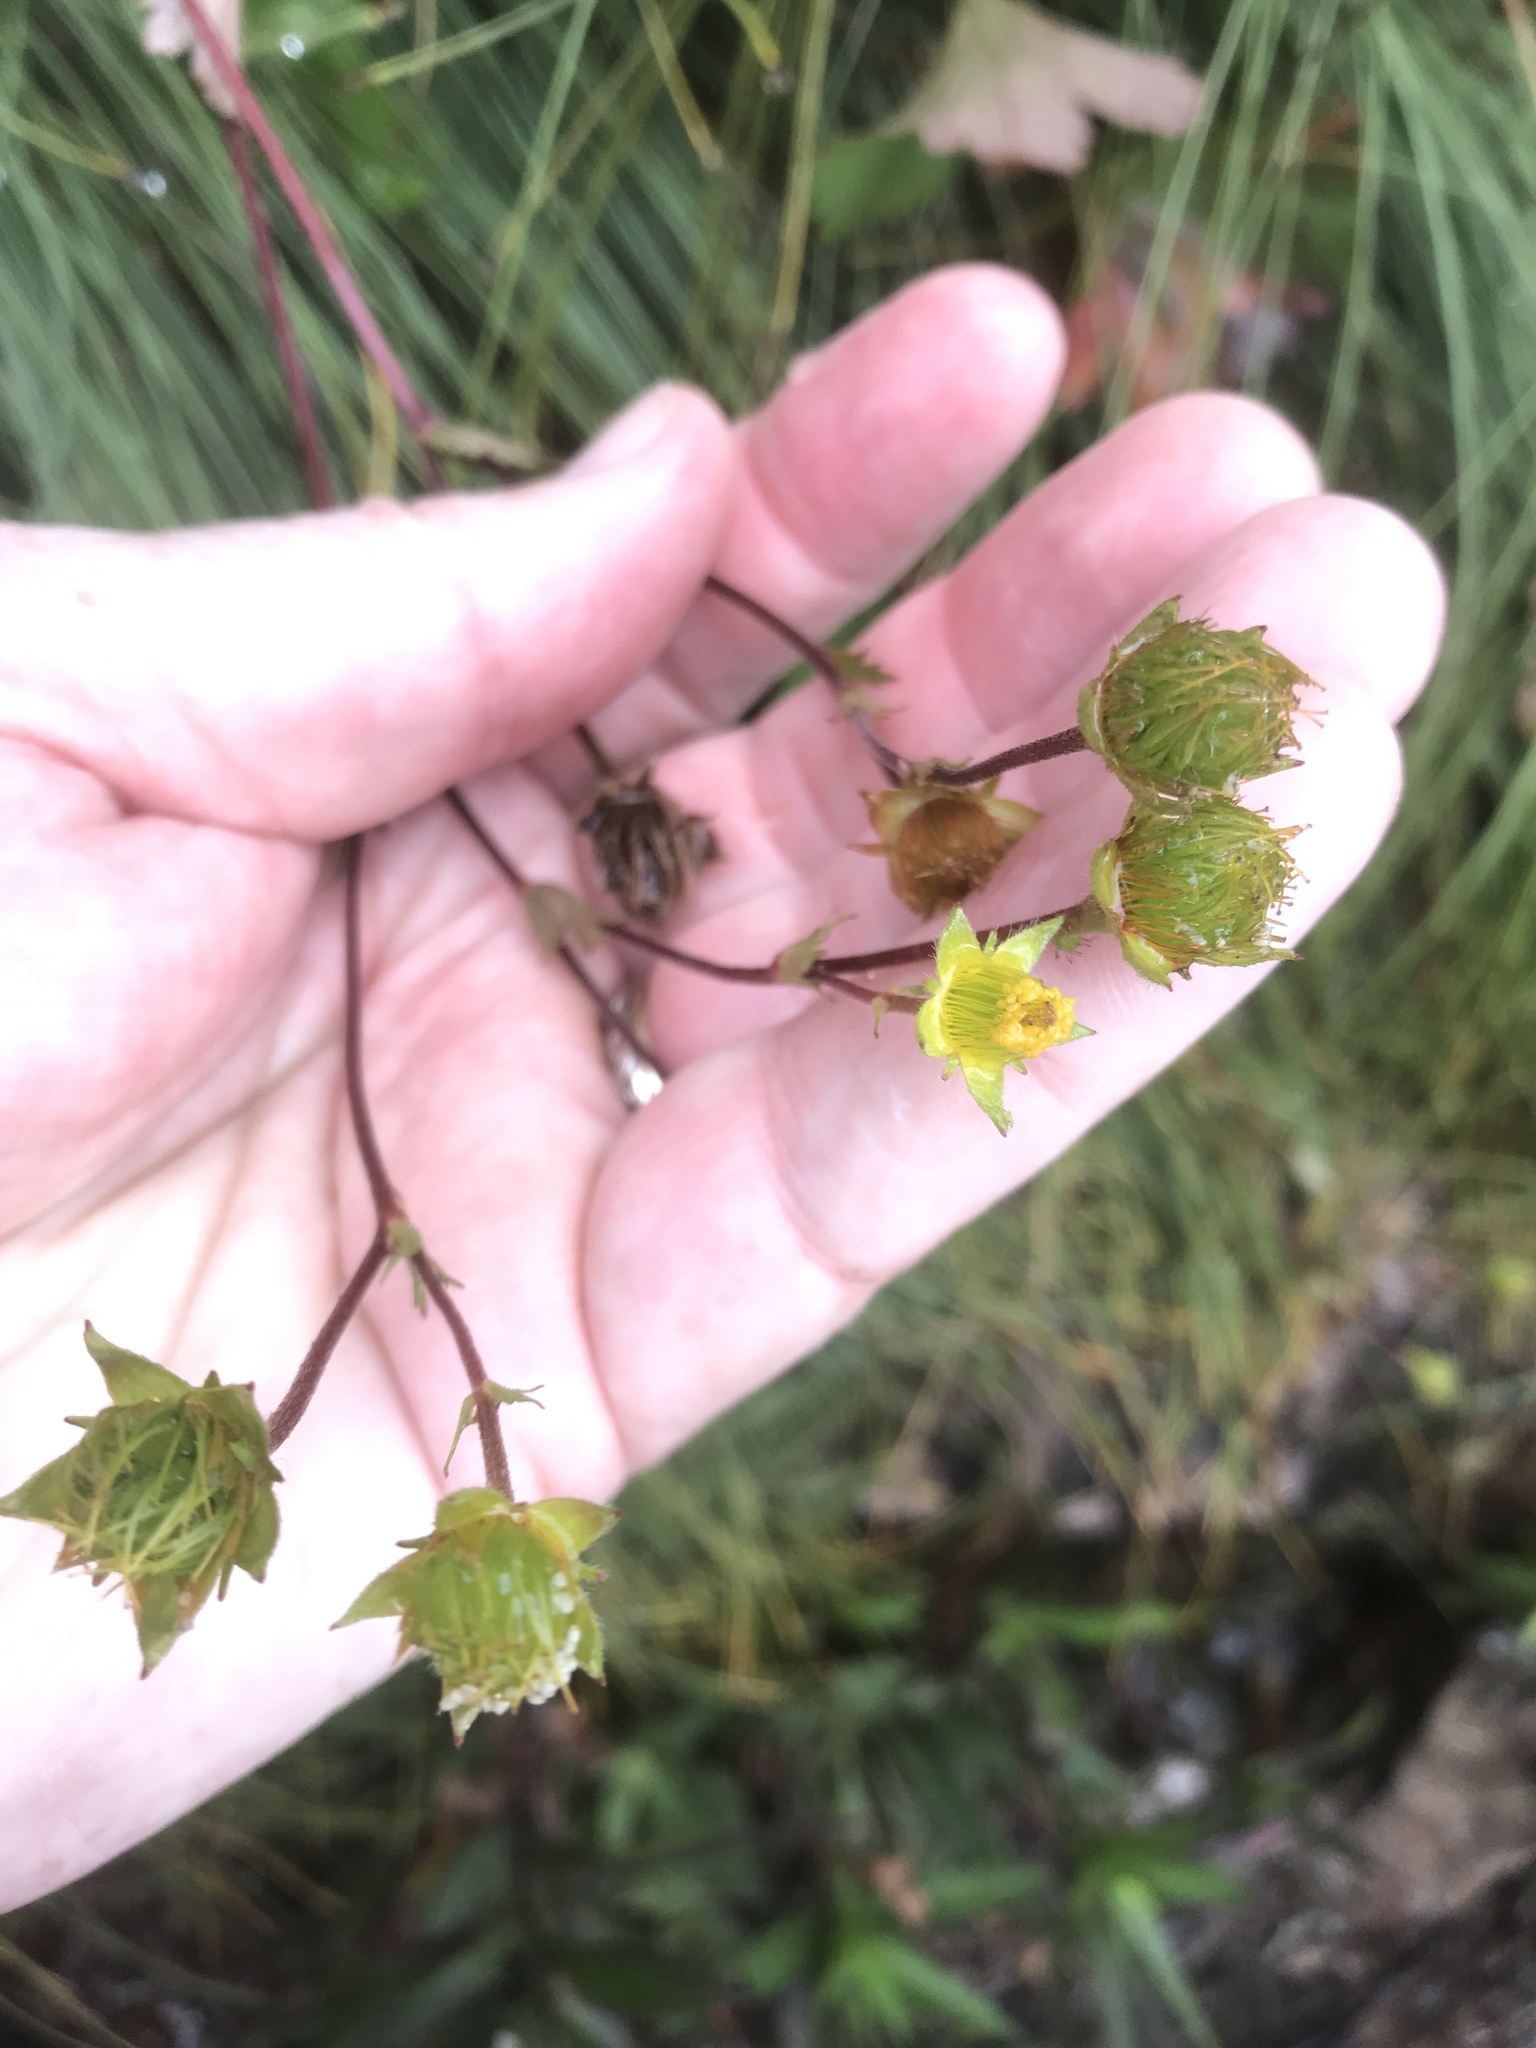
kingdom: Plantae
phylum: Tracheophyta
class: Magnoliopsida
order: Rosales
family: Rosaceae
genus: Geum
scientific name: Geum peckii
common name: Eastern mountain avens
